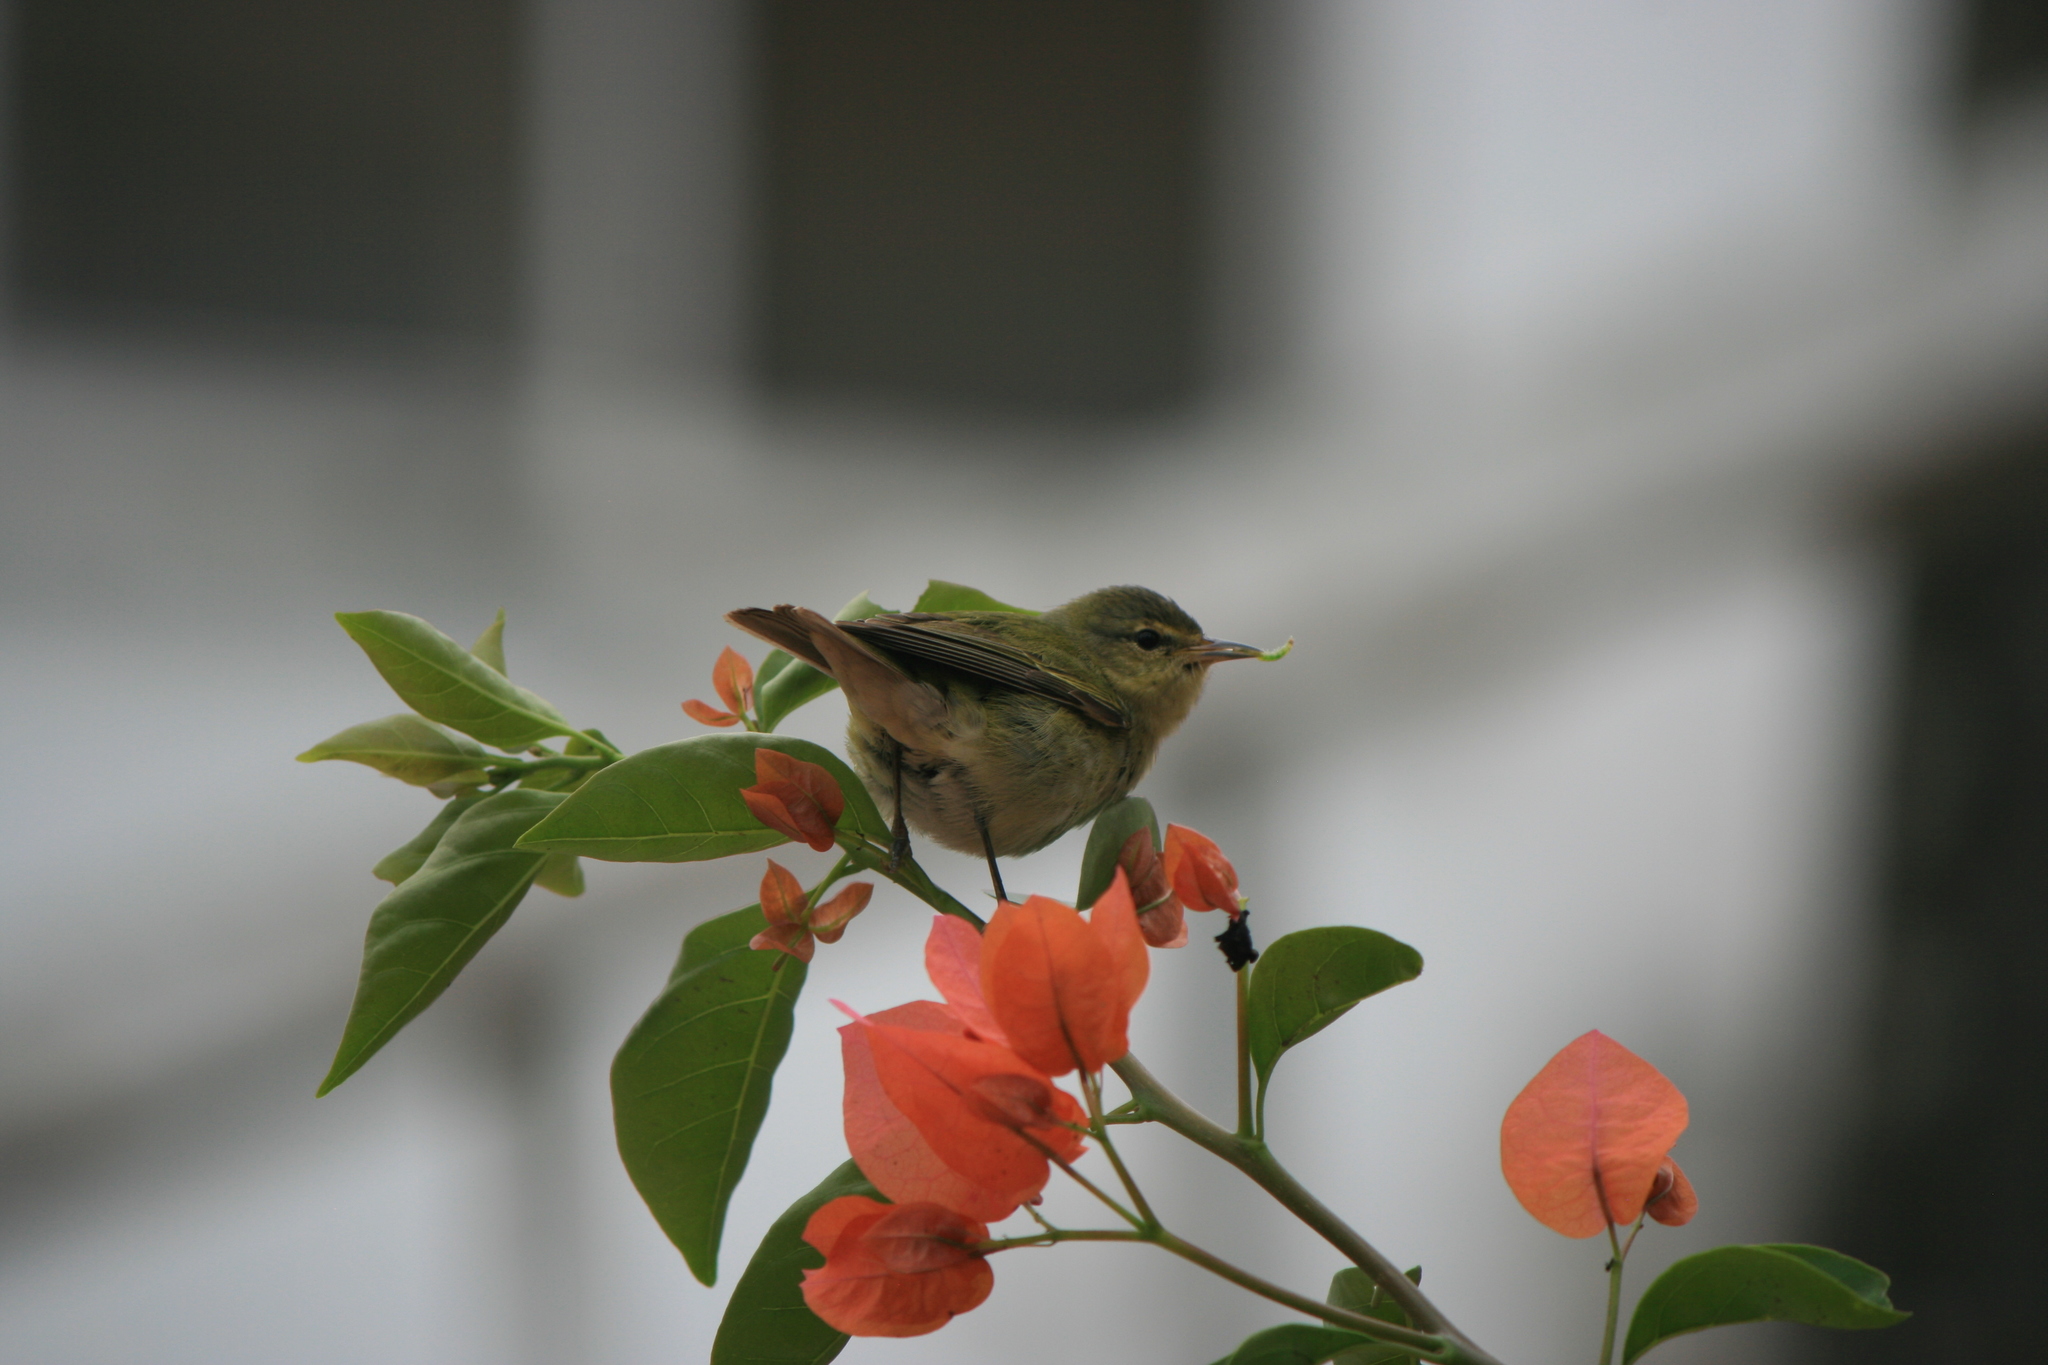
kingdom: Animalia
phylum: Chordata
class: Aves
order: Passeriformes
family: Parulidae
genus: Leiothlypis
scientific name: Leiothlypis peregrina
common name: Tennessee warbler
